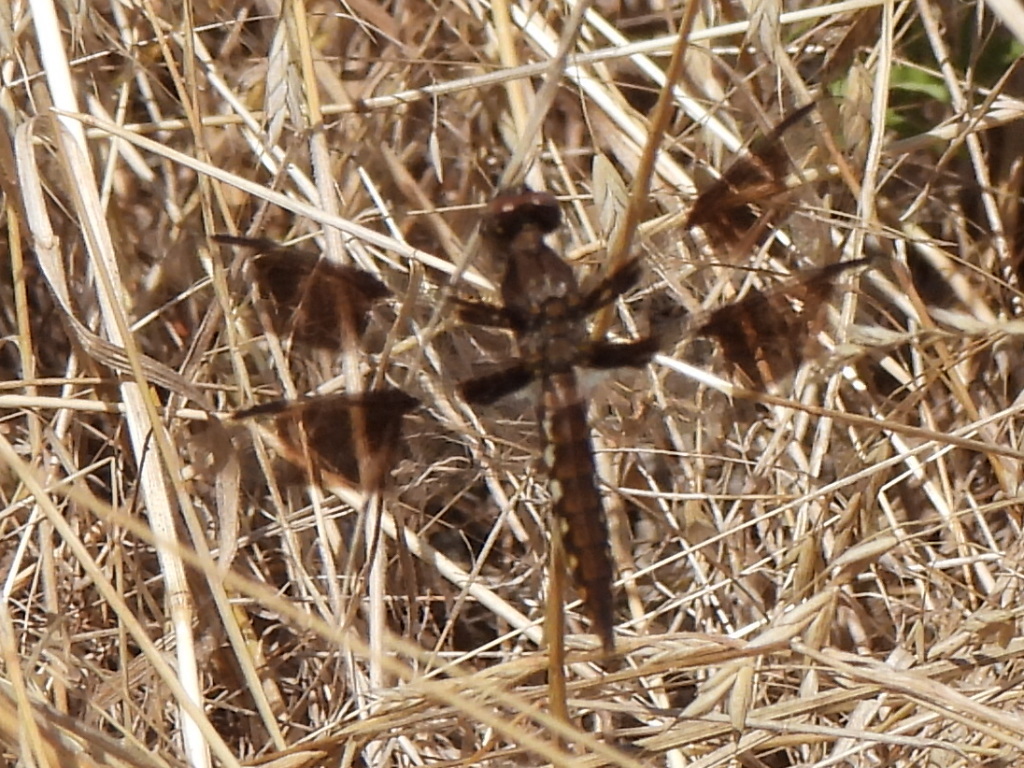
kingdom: Animalia
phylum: Arthropoda
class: Insecta
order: Odonata
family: Libellulidae
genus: Plathemis
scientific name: Plathemis lydia
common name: Common whitetail
